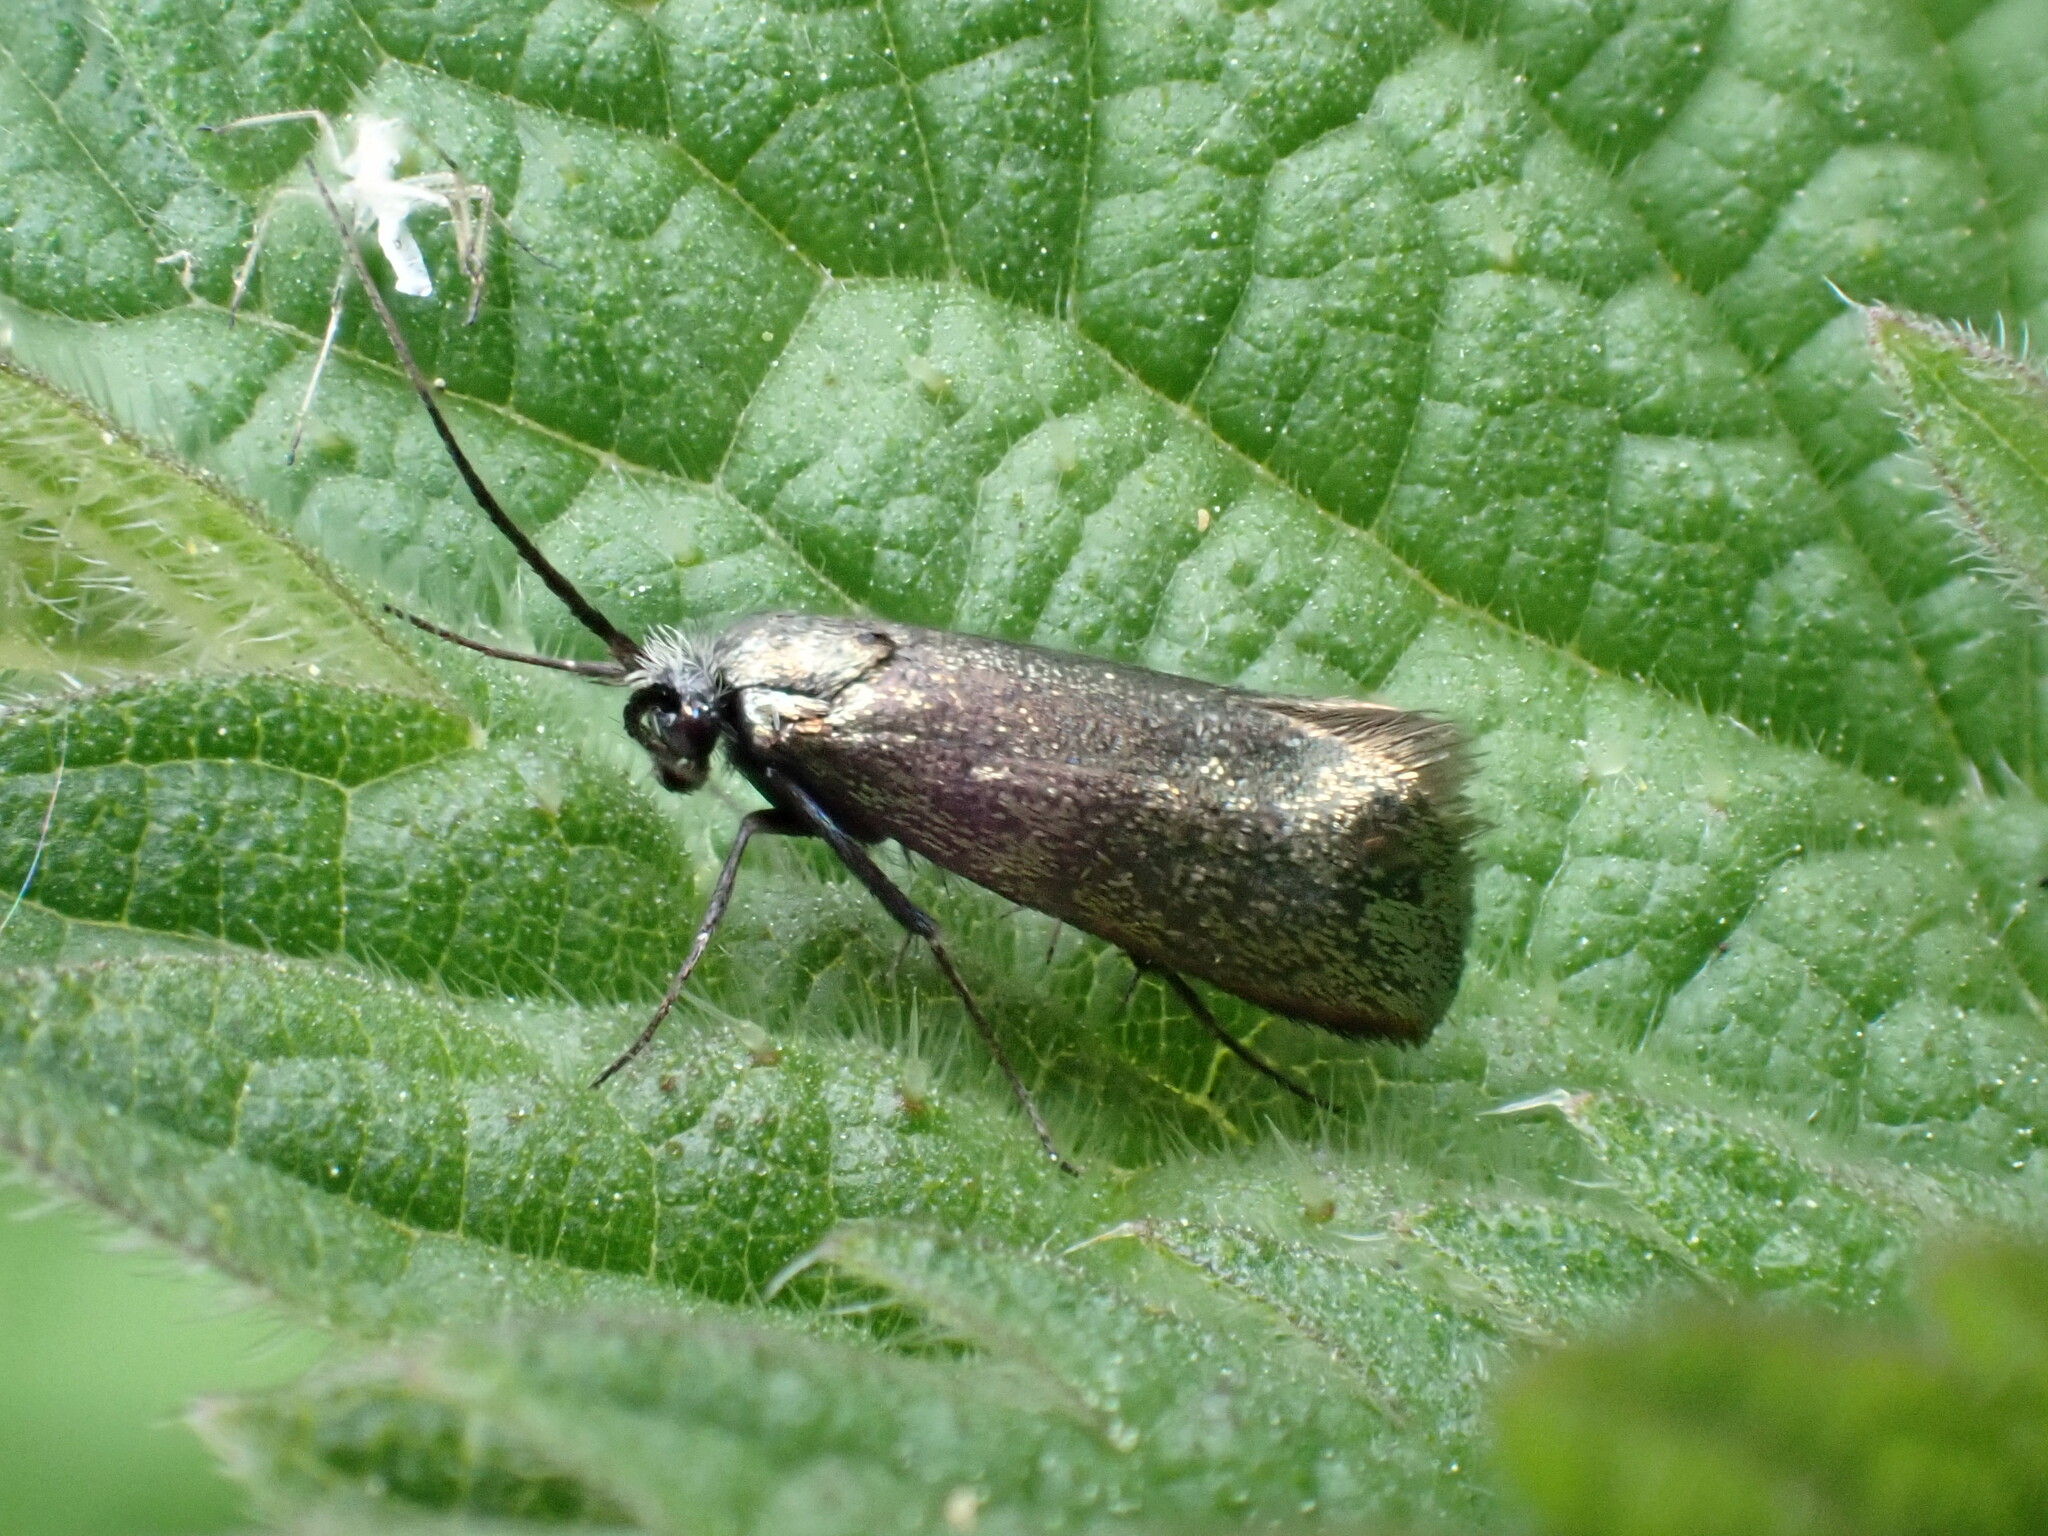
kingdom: Animalia
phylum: Arthropoda
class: Insecta
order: Lepidoptera
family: Adelidae
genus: Adela
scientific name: Adela viridella
